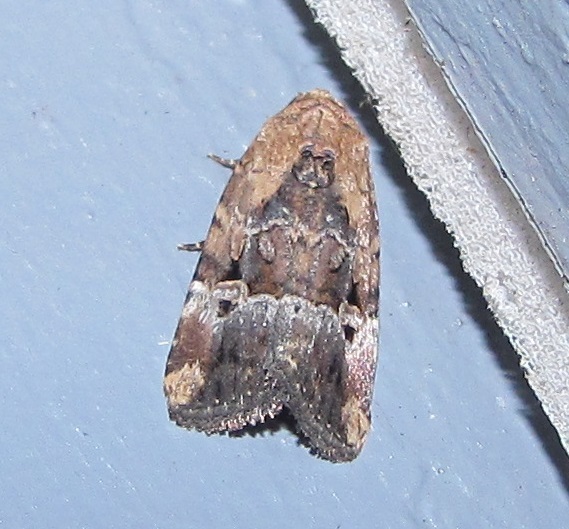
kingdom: Animalia
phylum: Arthropoda
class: Insecta
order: Lepidoptera
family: Noctuidae
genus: Elaphria
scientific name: Elaphria chalcedonia
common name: Chalcedony midget
